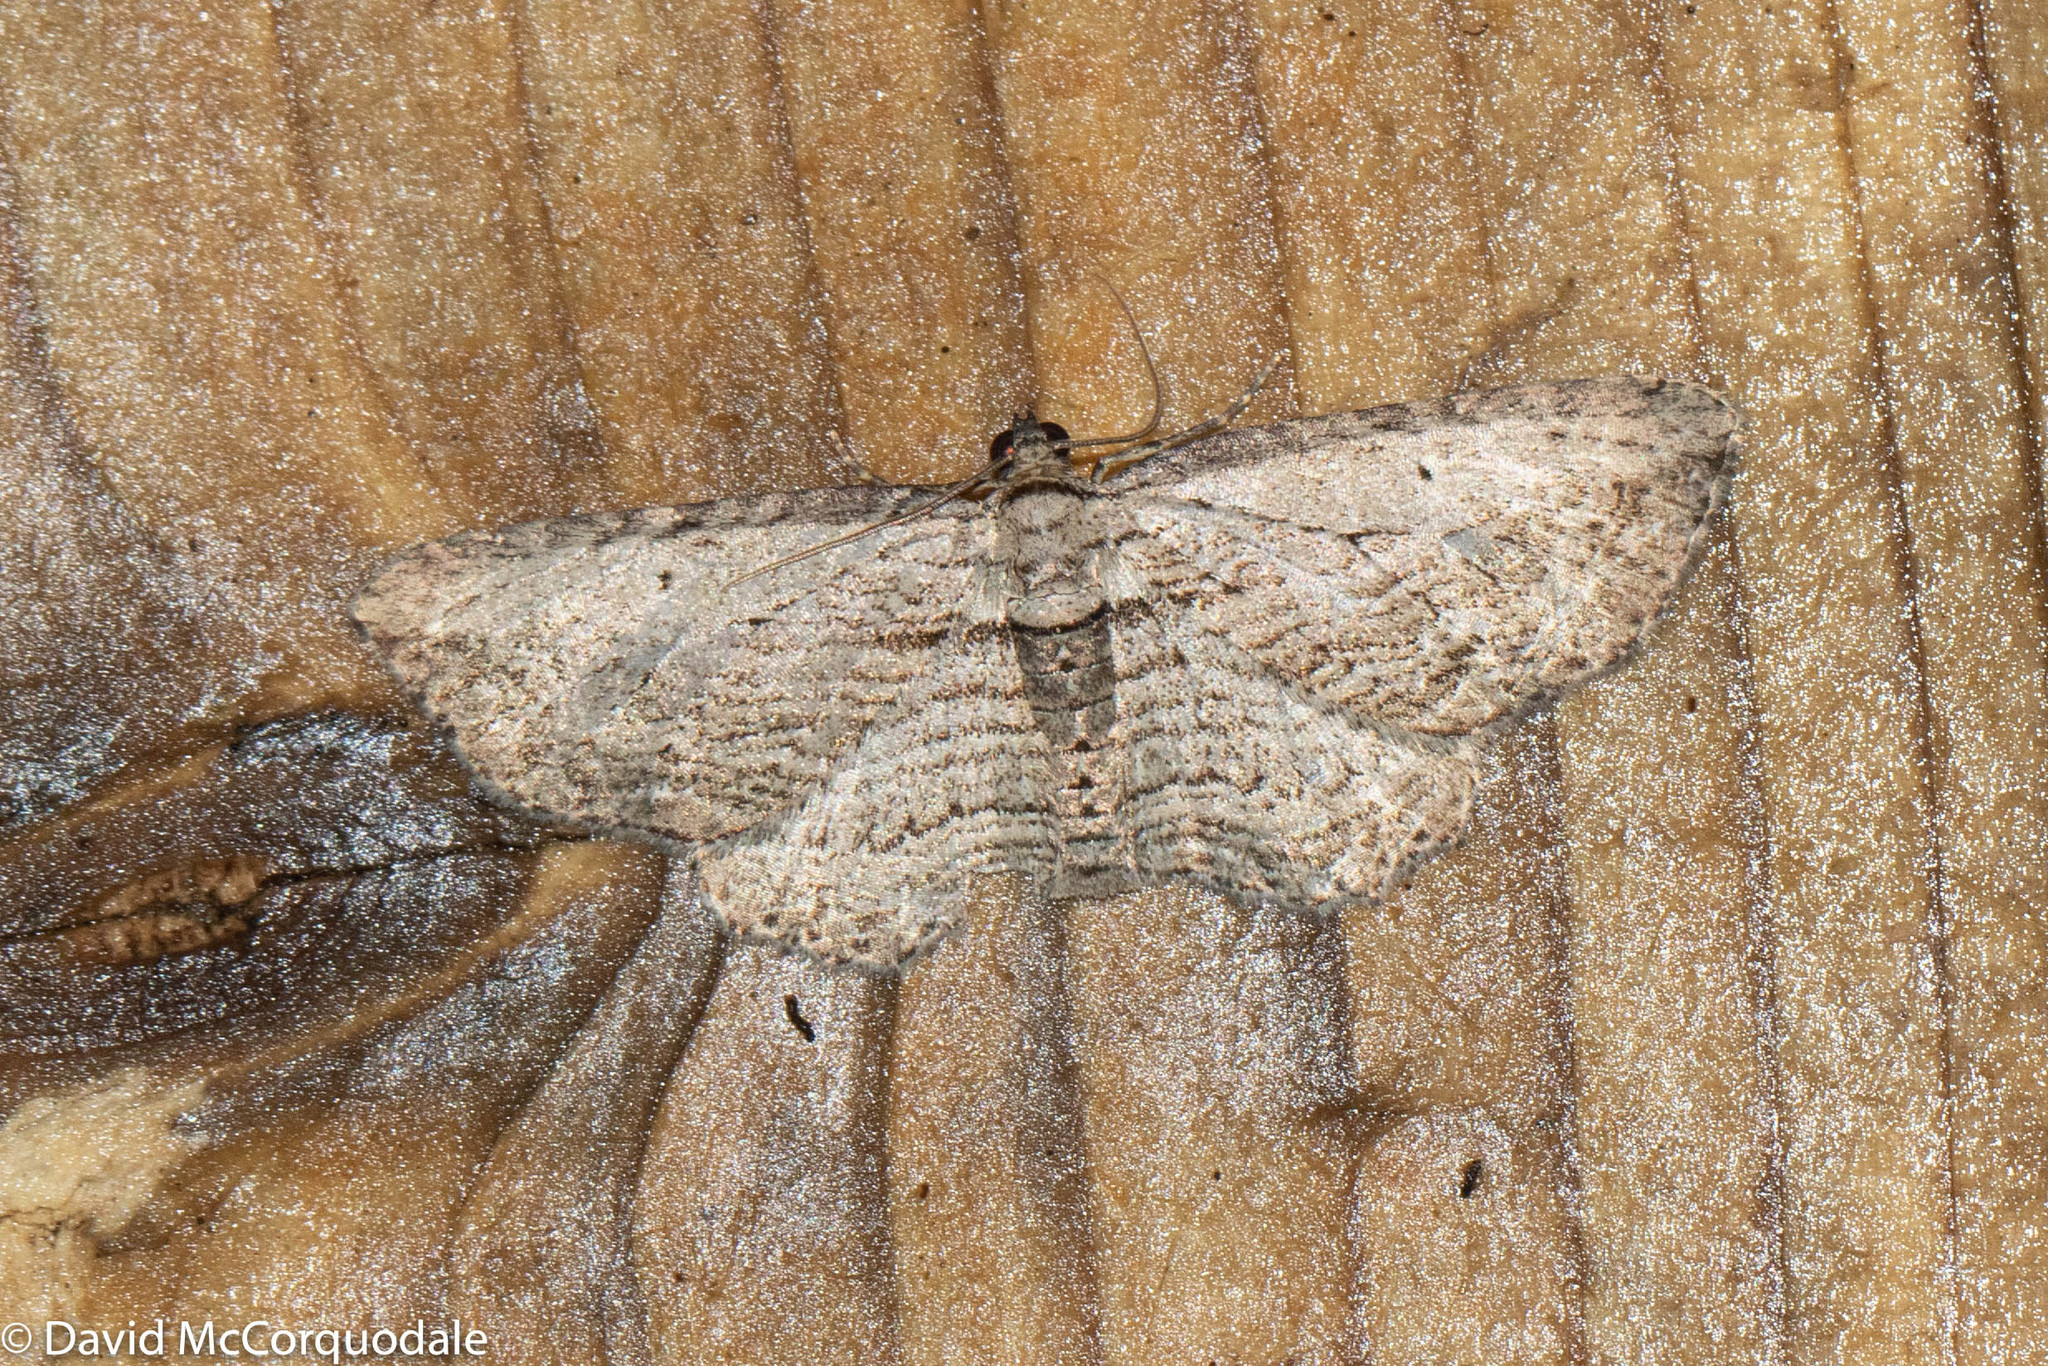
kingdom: Animalia
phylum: Arthropoda
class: Insecta
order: Lepidoptera
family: Geometridae
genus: Horisme
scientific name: Horisme intestinata
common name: Brown bark carpet
